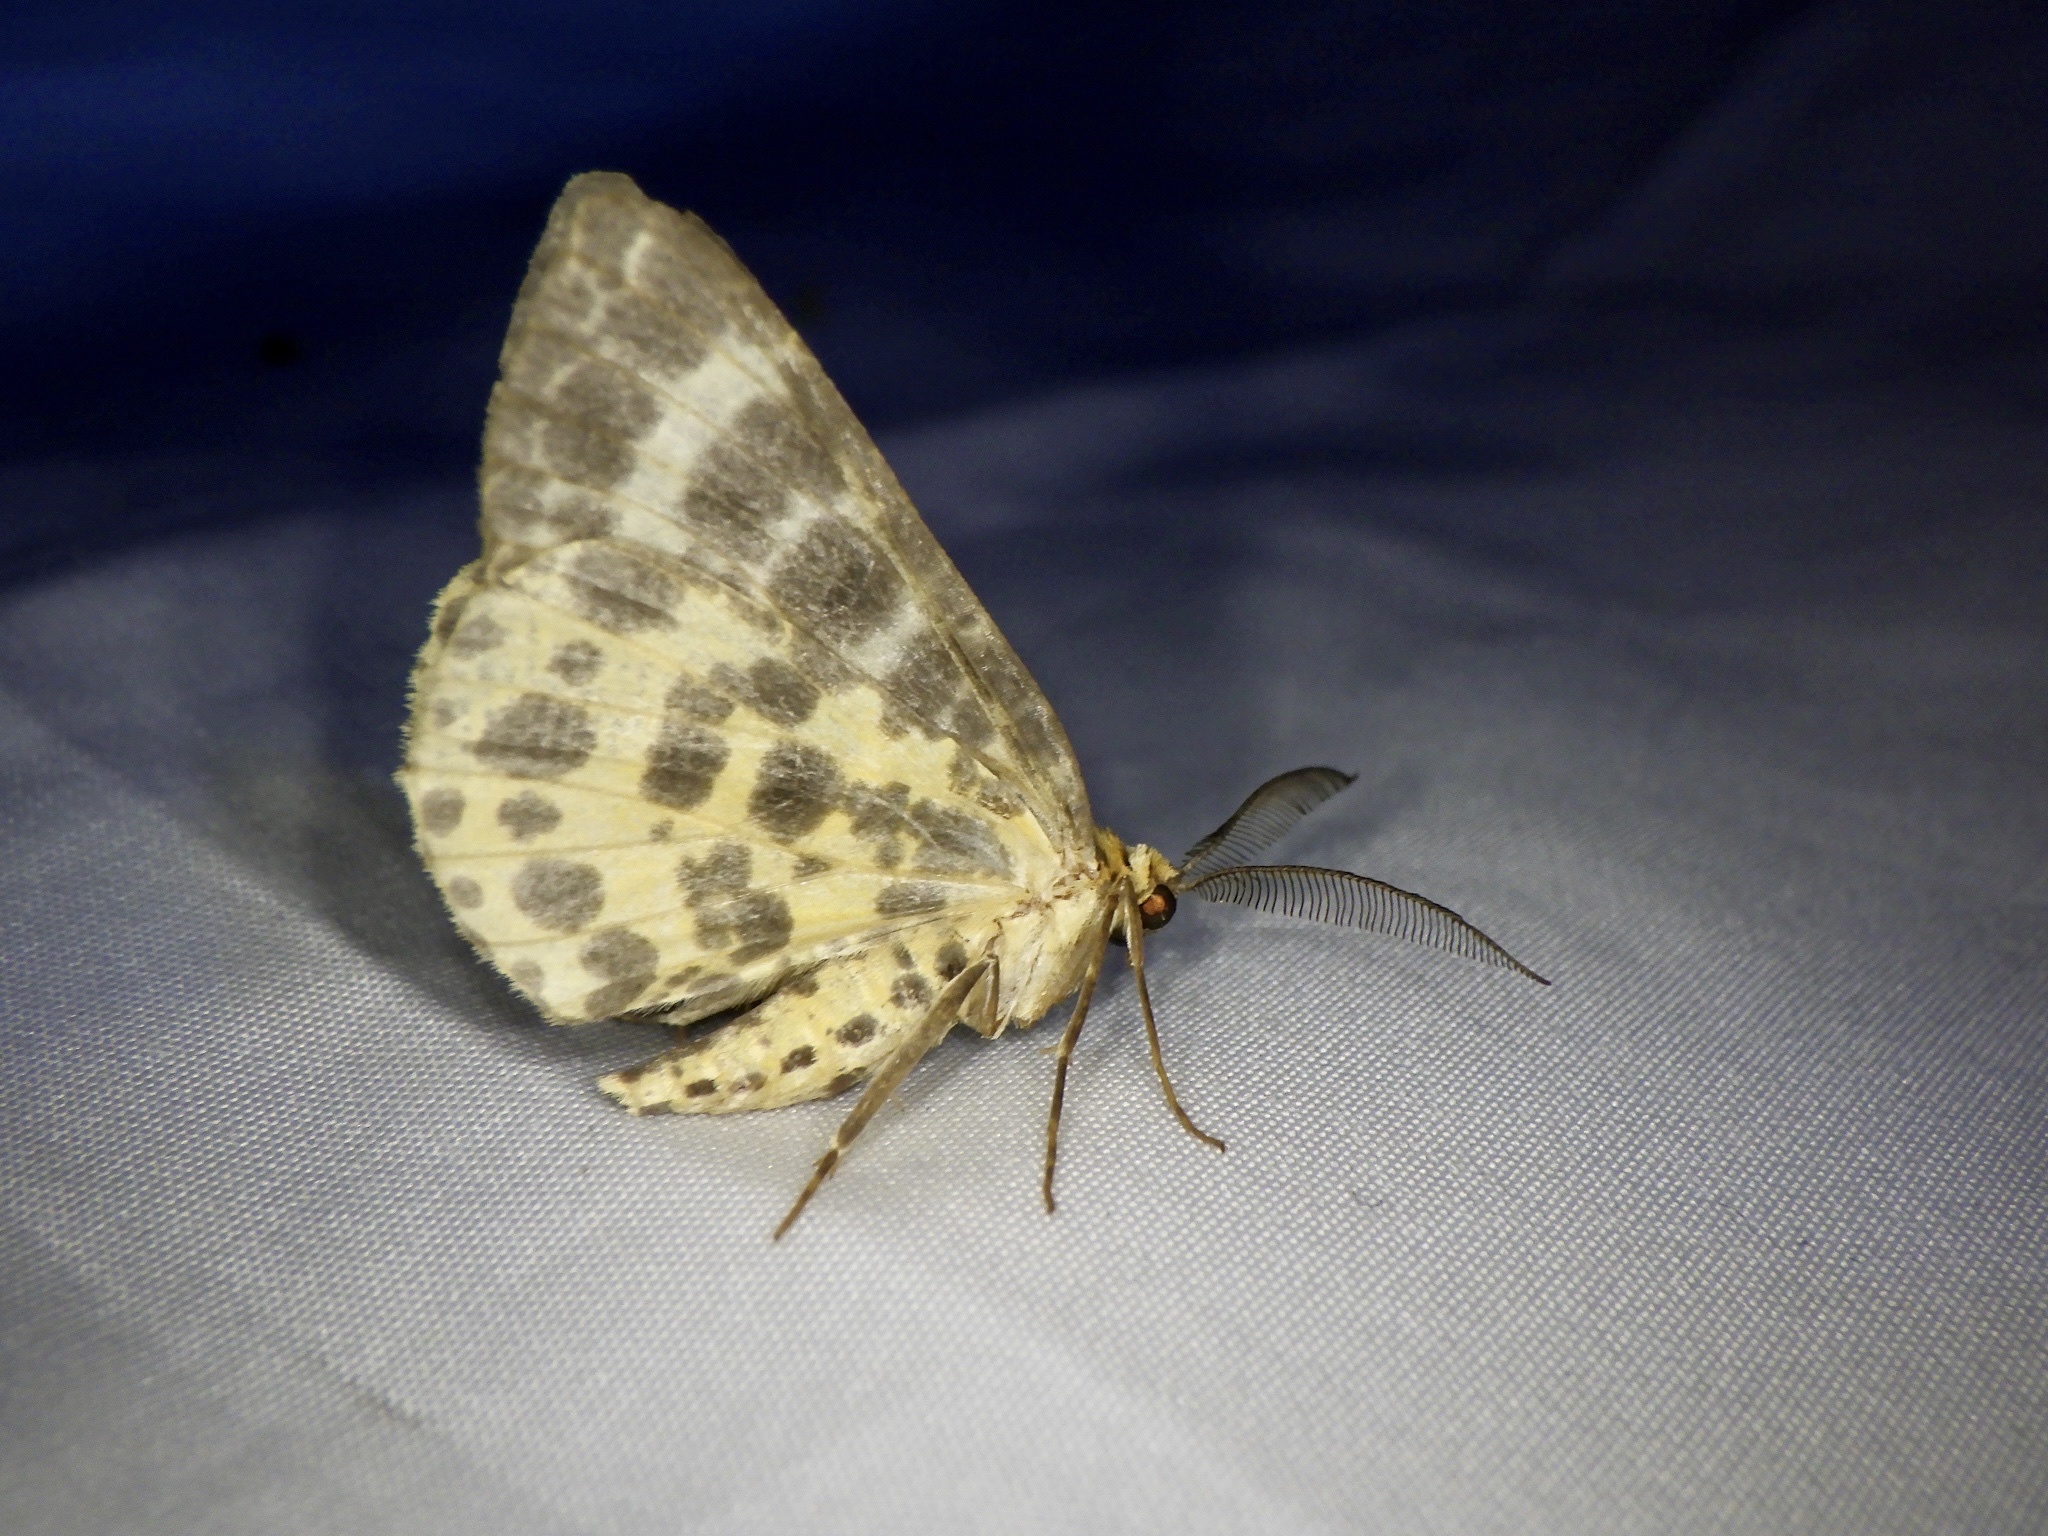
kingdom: Animalia
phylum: Arthropoda
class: Insecta
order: Lepidoptera
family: Geometridae
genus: Arichanna
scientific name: Arichanna melanaria
